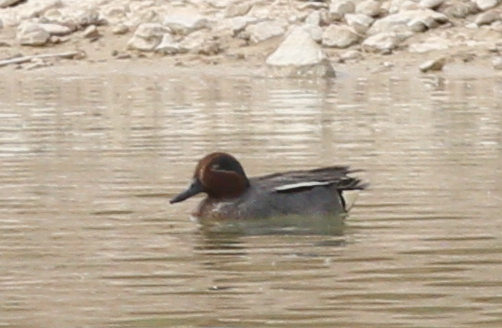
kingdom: Animalia
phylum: Chordata
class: Aves
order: Anseriformes
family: Anatidae
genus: Anas
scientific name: Anas crecca
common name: Eurasian teal
